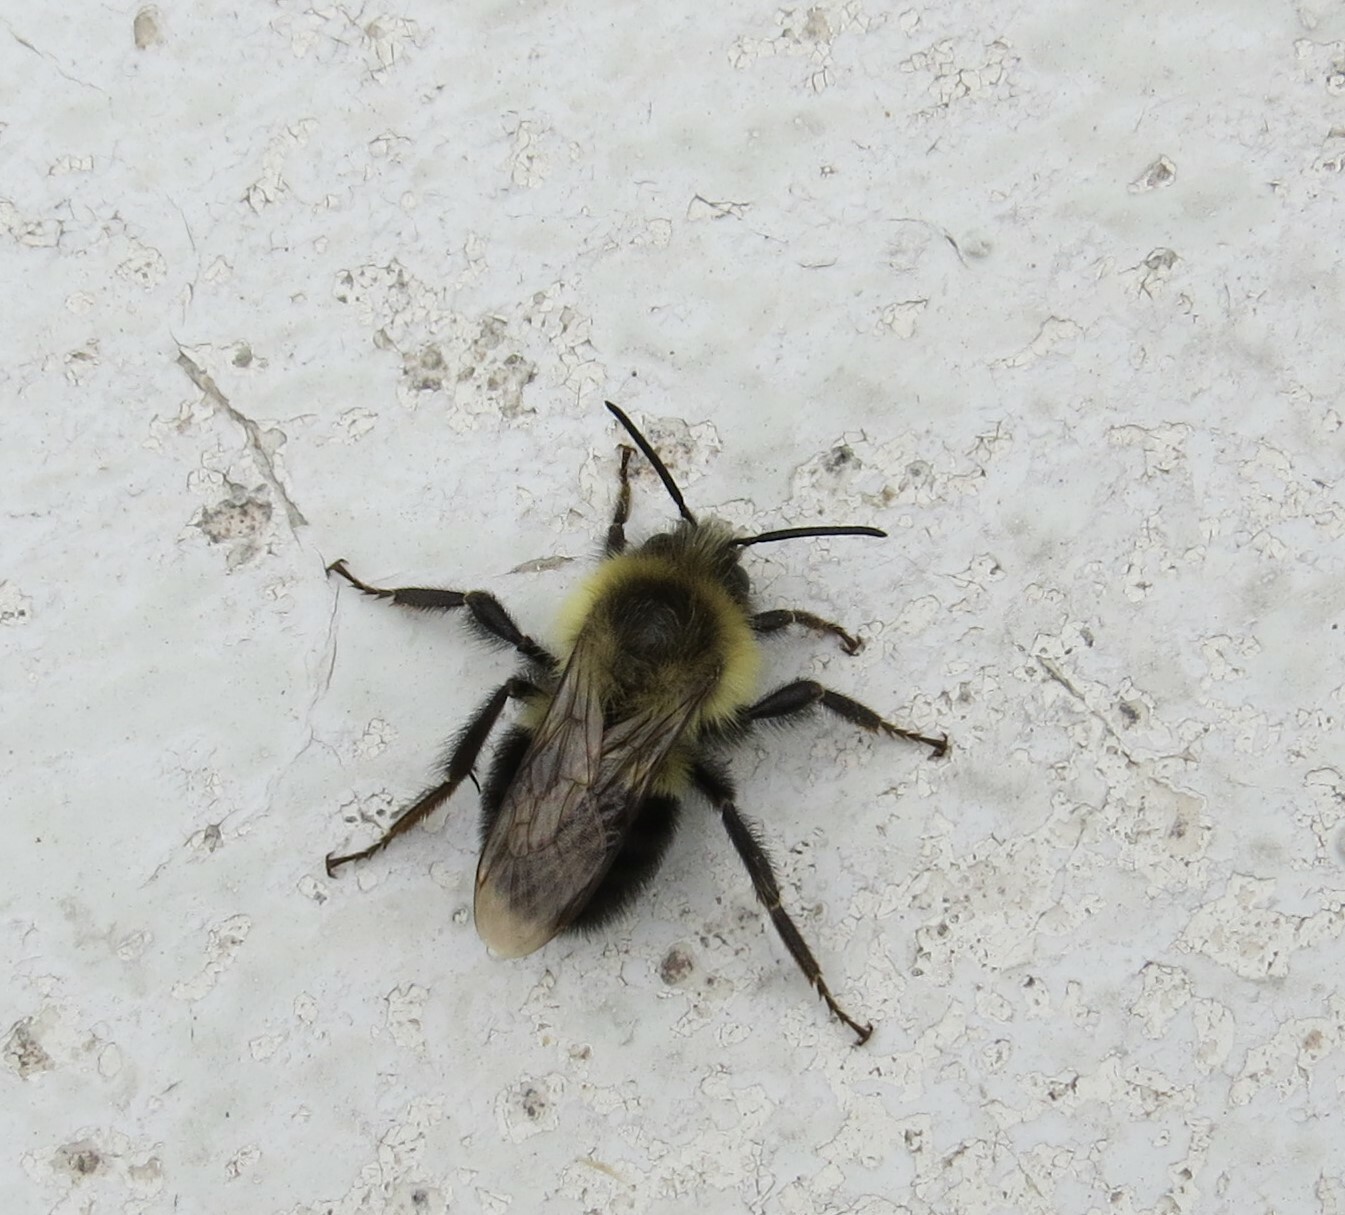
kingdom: Animalia
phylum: Arthropoda
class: Insecta
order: Hymenoptera
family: Apidae
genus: Bombus
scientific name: Bombus impatiens
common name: Common eastern bumble bee
